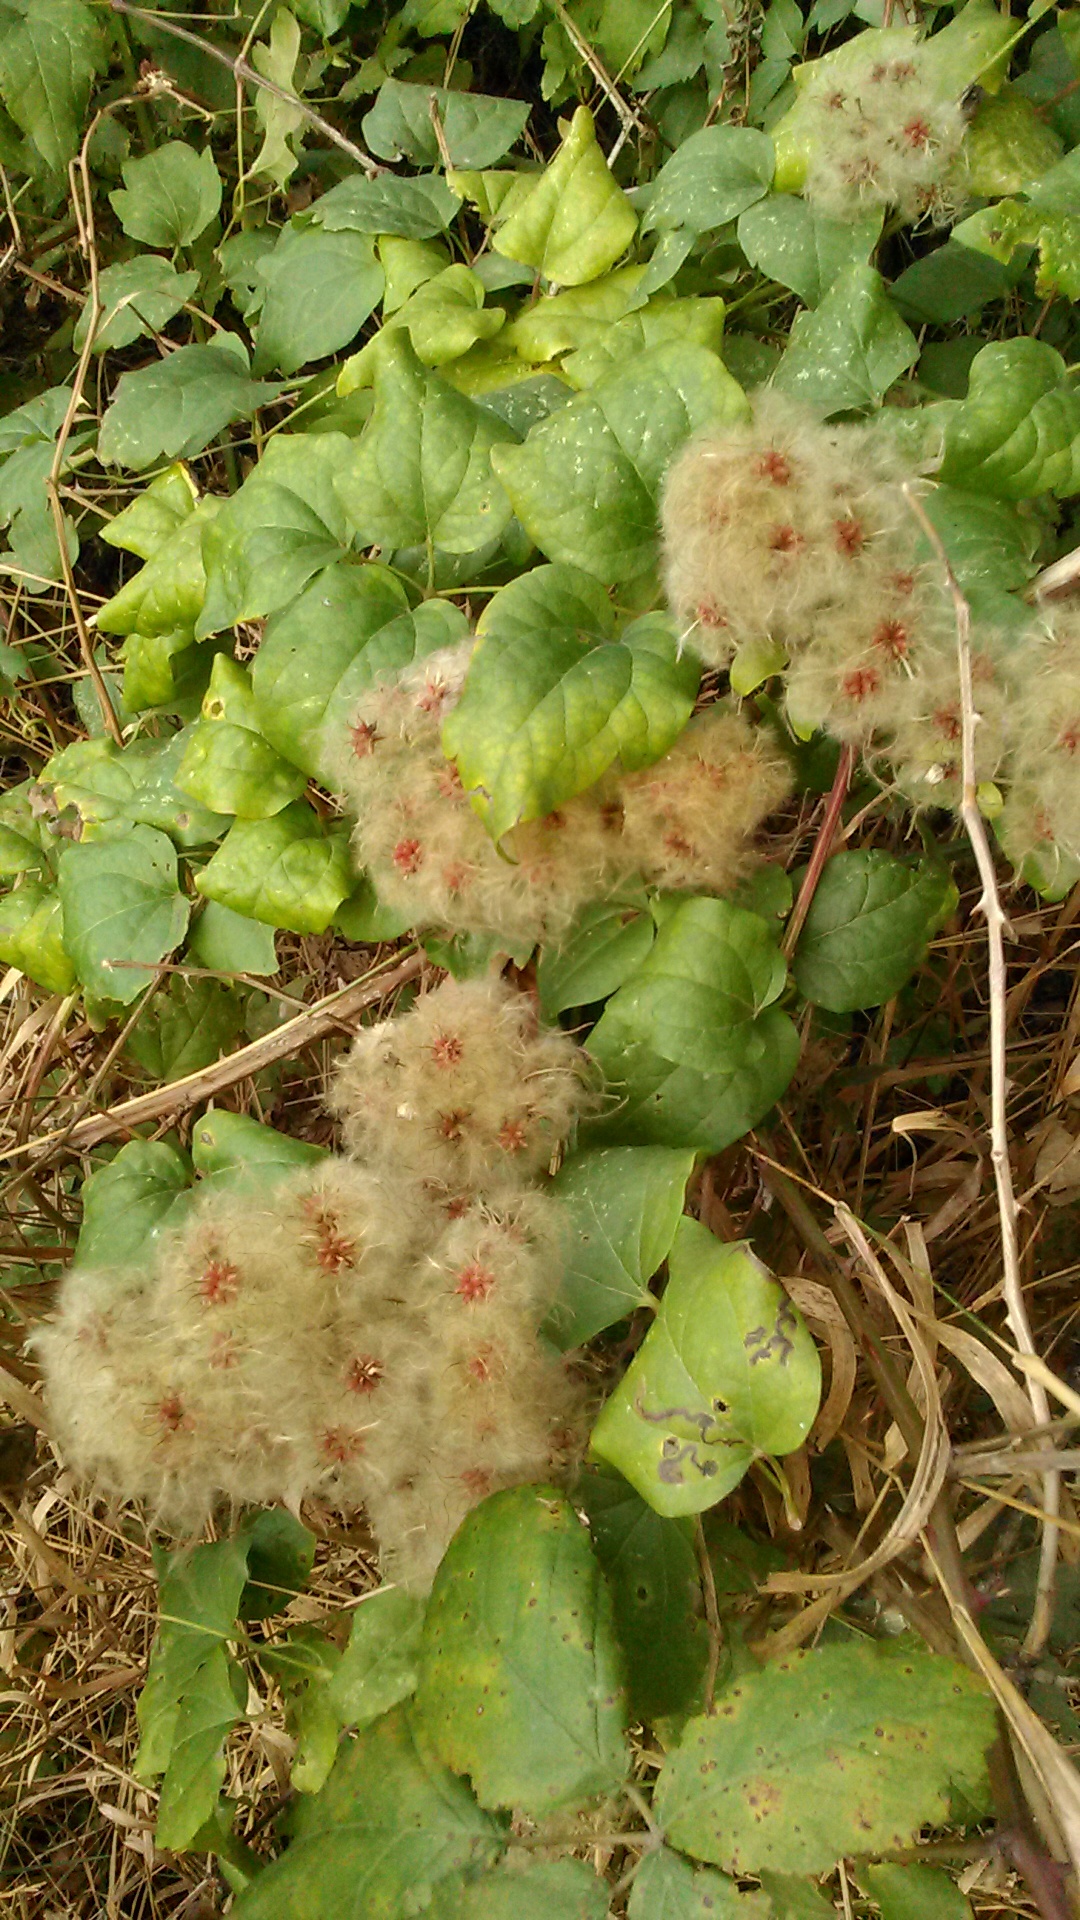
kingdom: Plantae
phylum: Tracheophyta
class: Magnoliopsida
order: Ranunculales
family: Ranunculaceae
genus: Clematis
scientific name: Clematis vitalba
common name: Evergreen clematis
